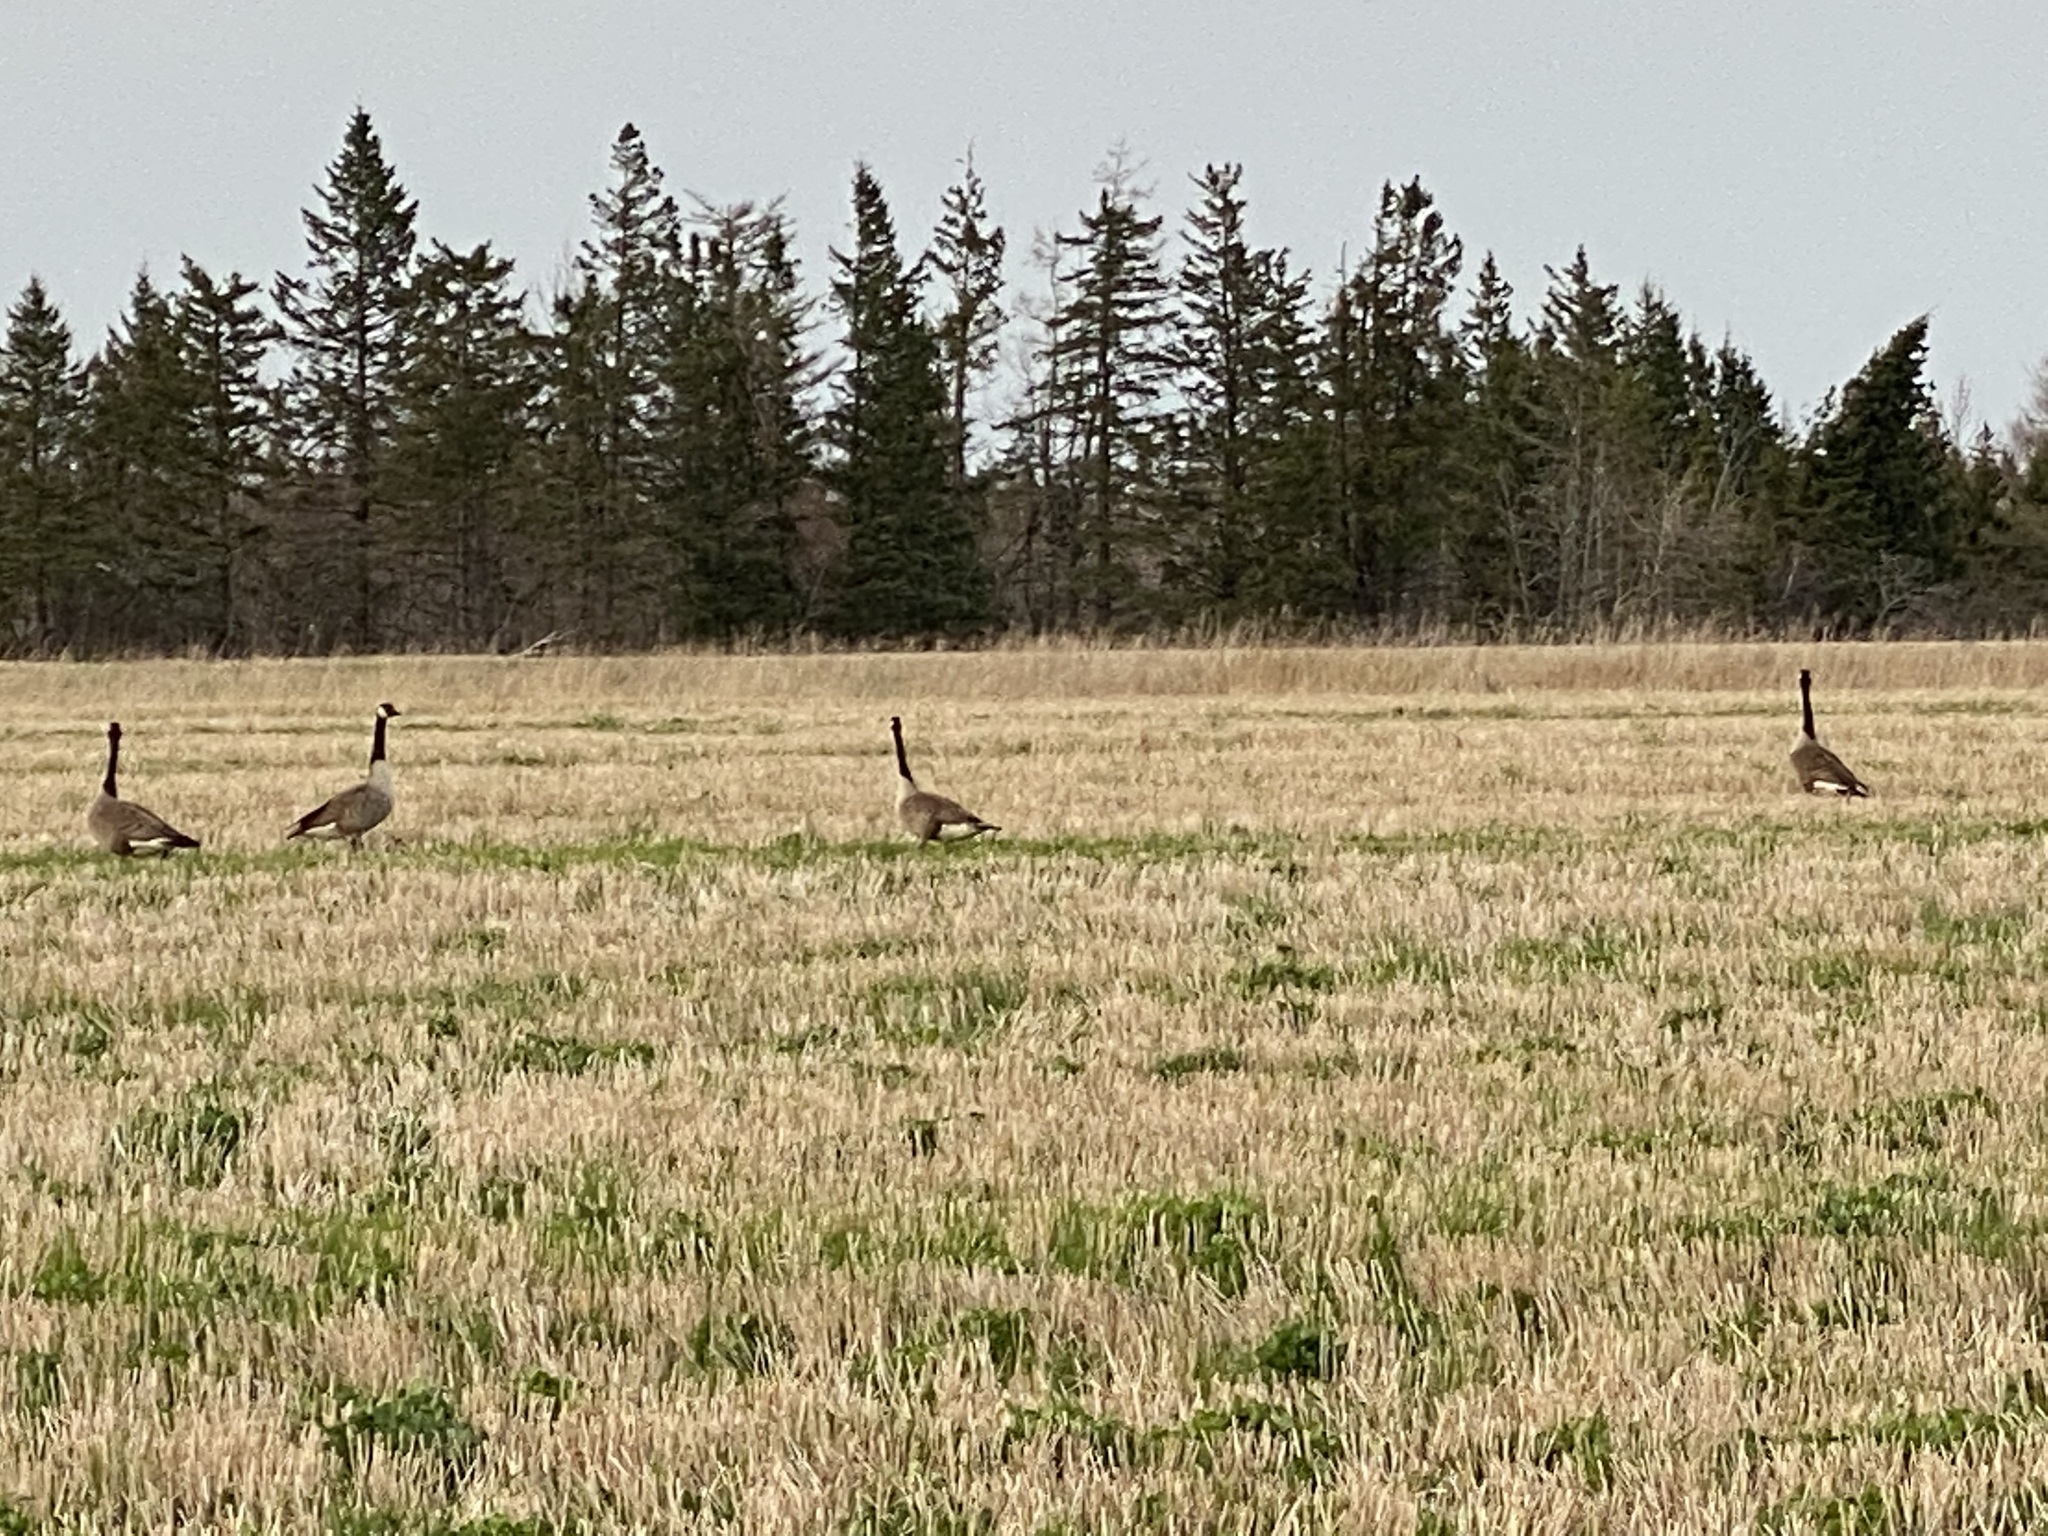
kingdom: Animalia
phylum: Chordata
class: Aves
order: Anseriformes
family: Anatidae
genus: Branta
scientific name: Branta canadensis
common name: Canada goose
